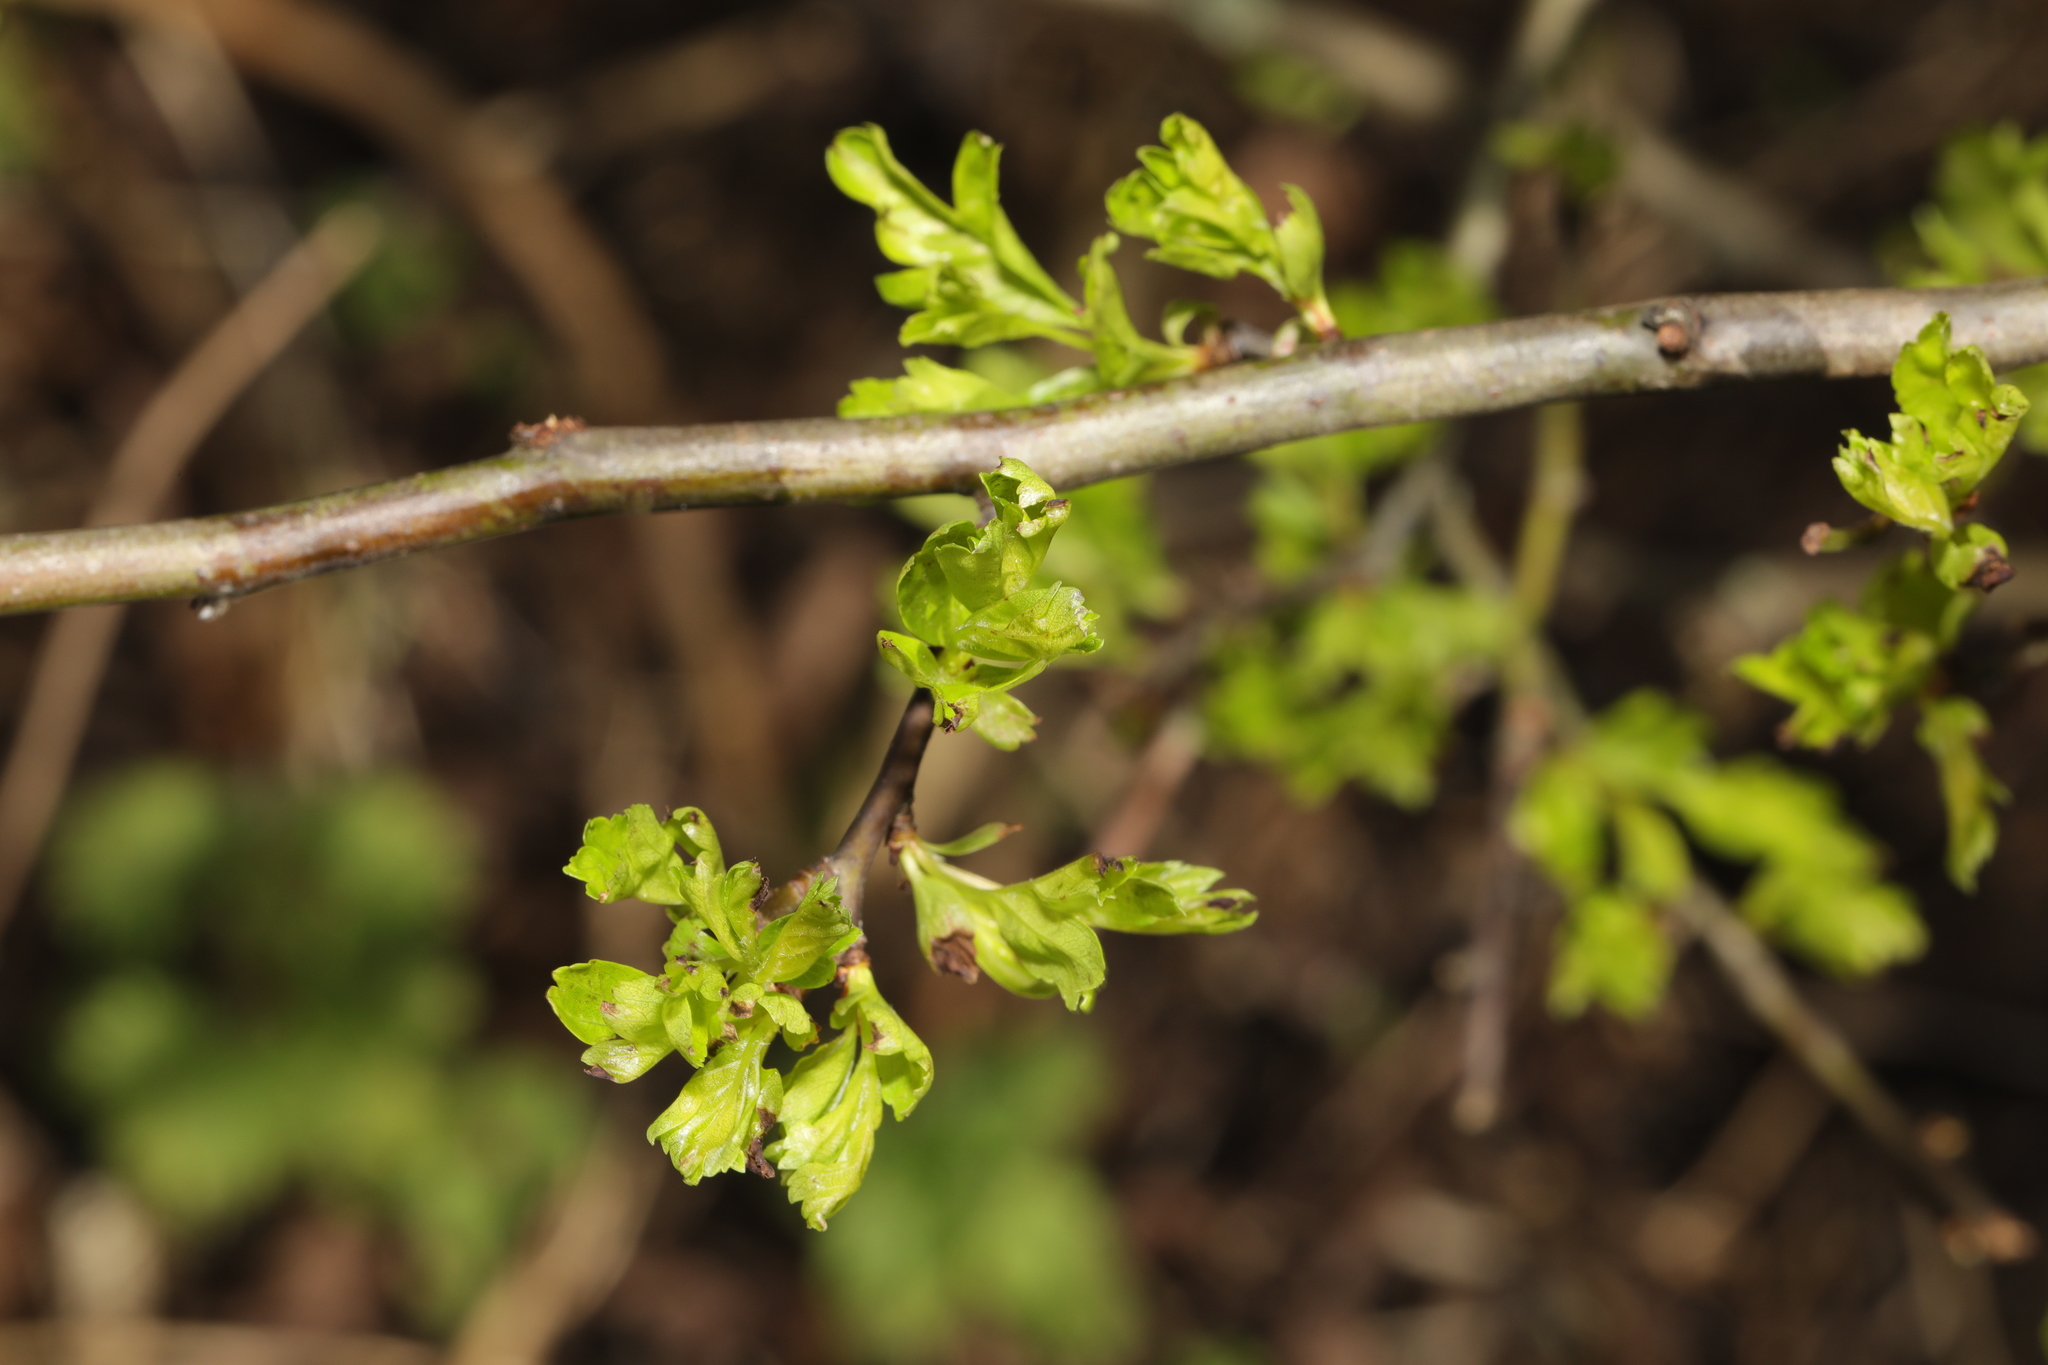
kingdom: Plantae
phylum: Tracheophyta
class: Magnoliopsida
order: Rosales
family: Rosaceae
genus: Crataegus
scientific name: Crataegus monogyna
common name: Hawthorn
